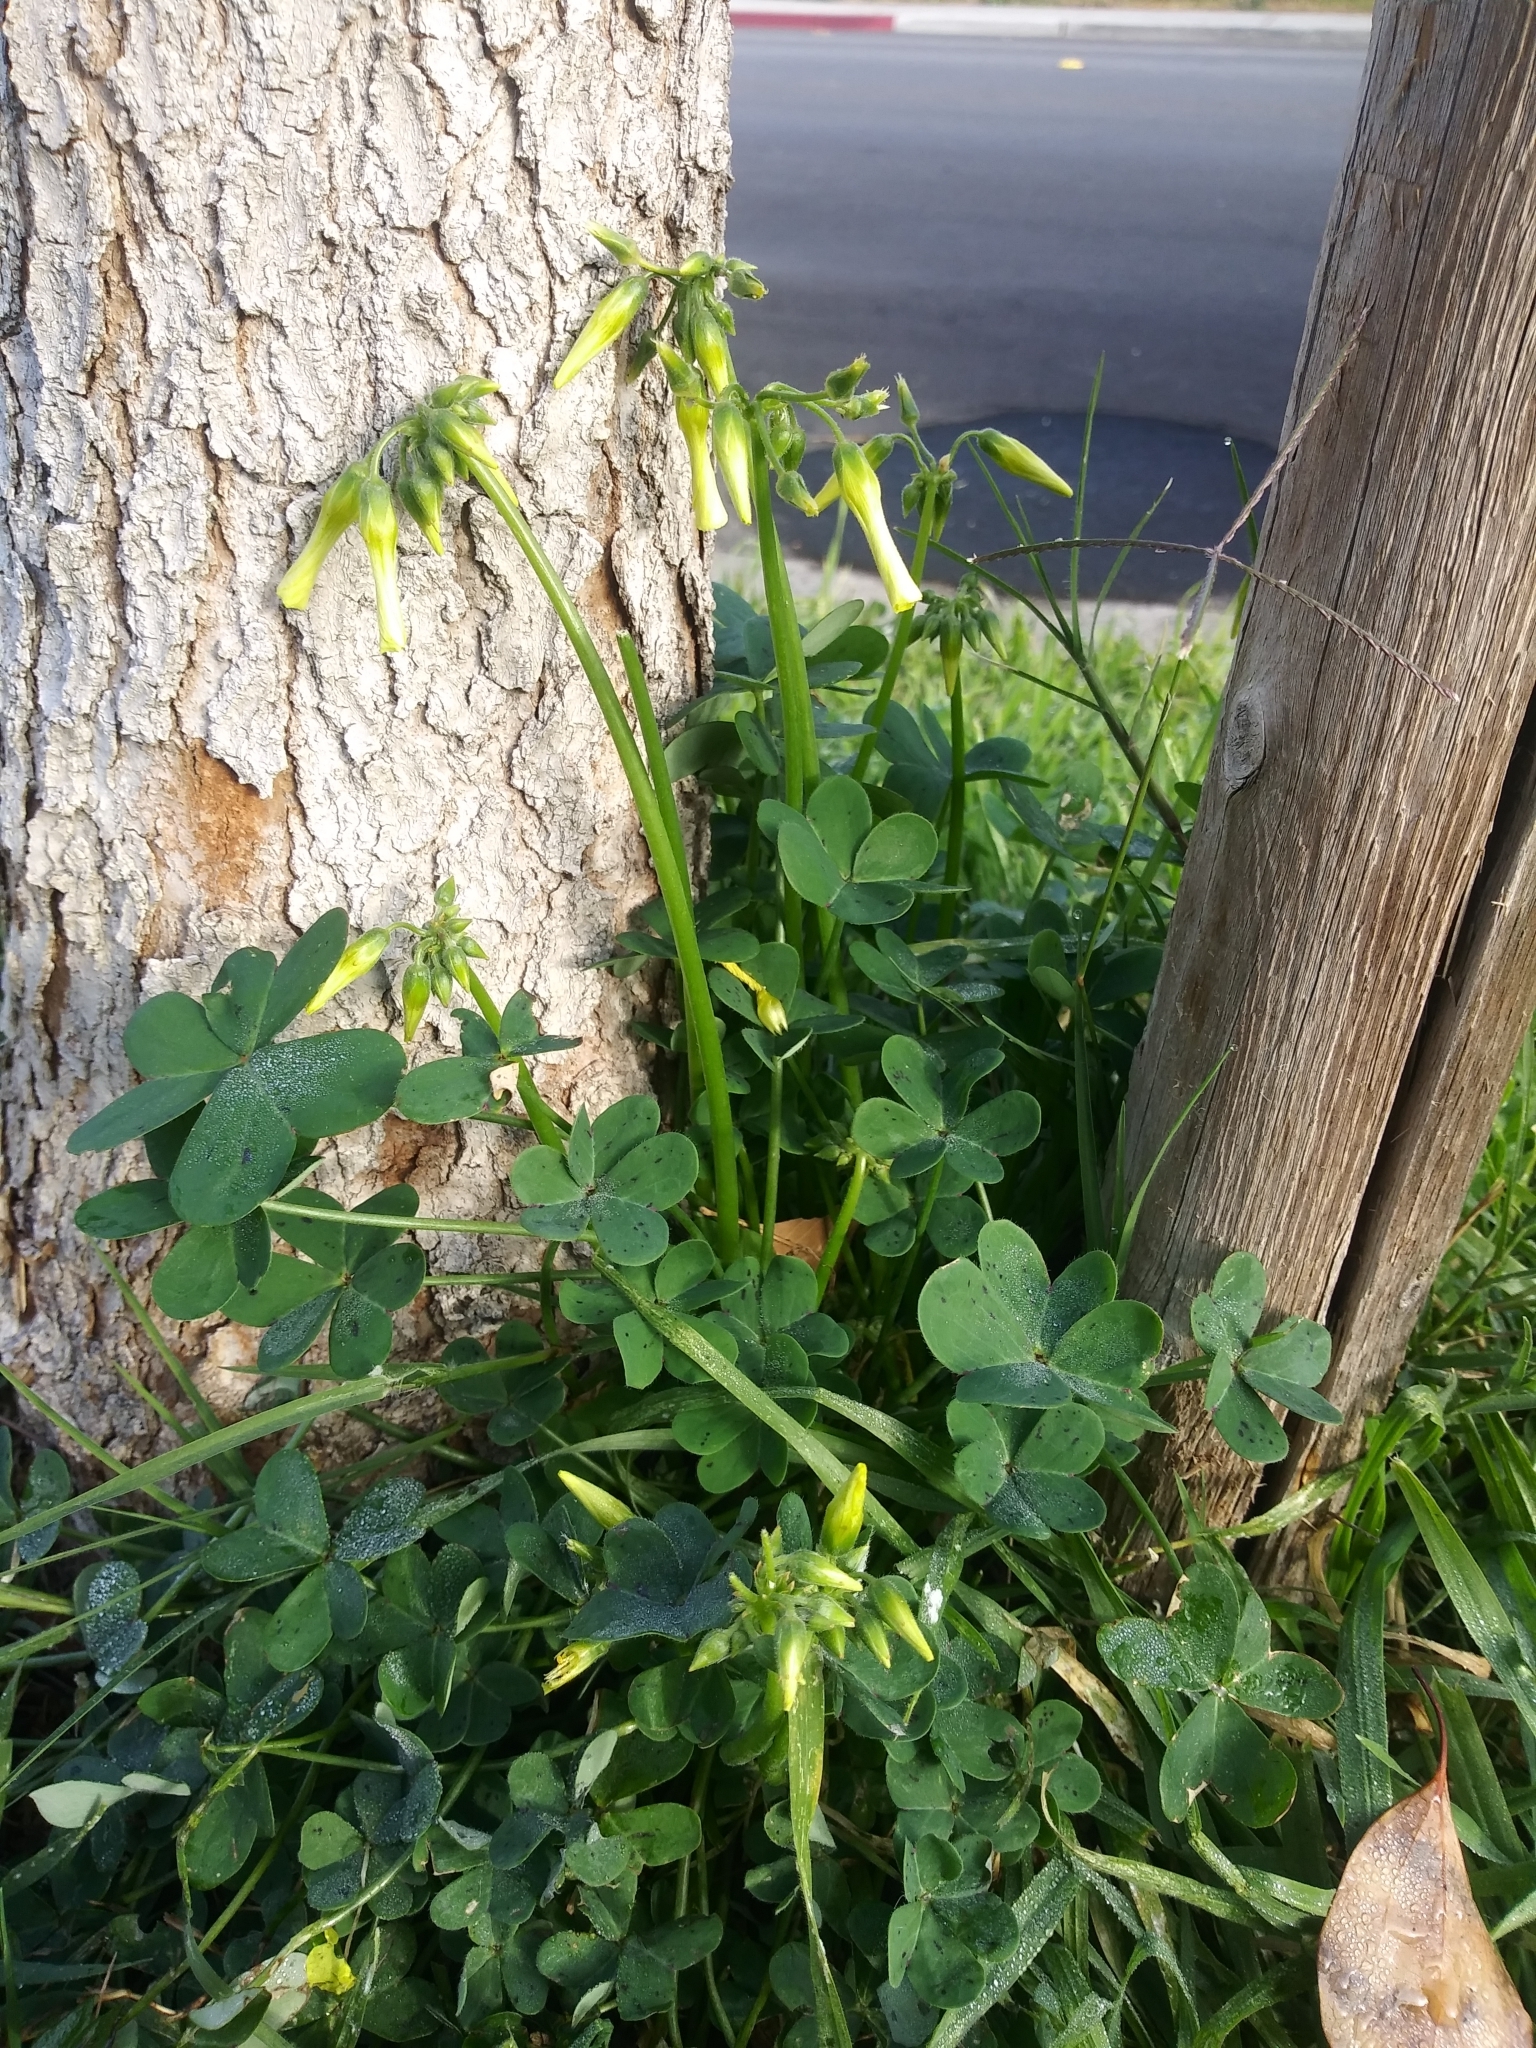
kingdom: Plantae
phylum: Tracheophyta
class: Magnoliopsida
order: Oxalidales
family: Oxalidaceae
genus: Oxalis
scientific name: Oxalis pes-caprae
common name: Bermuda-buttercup
